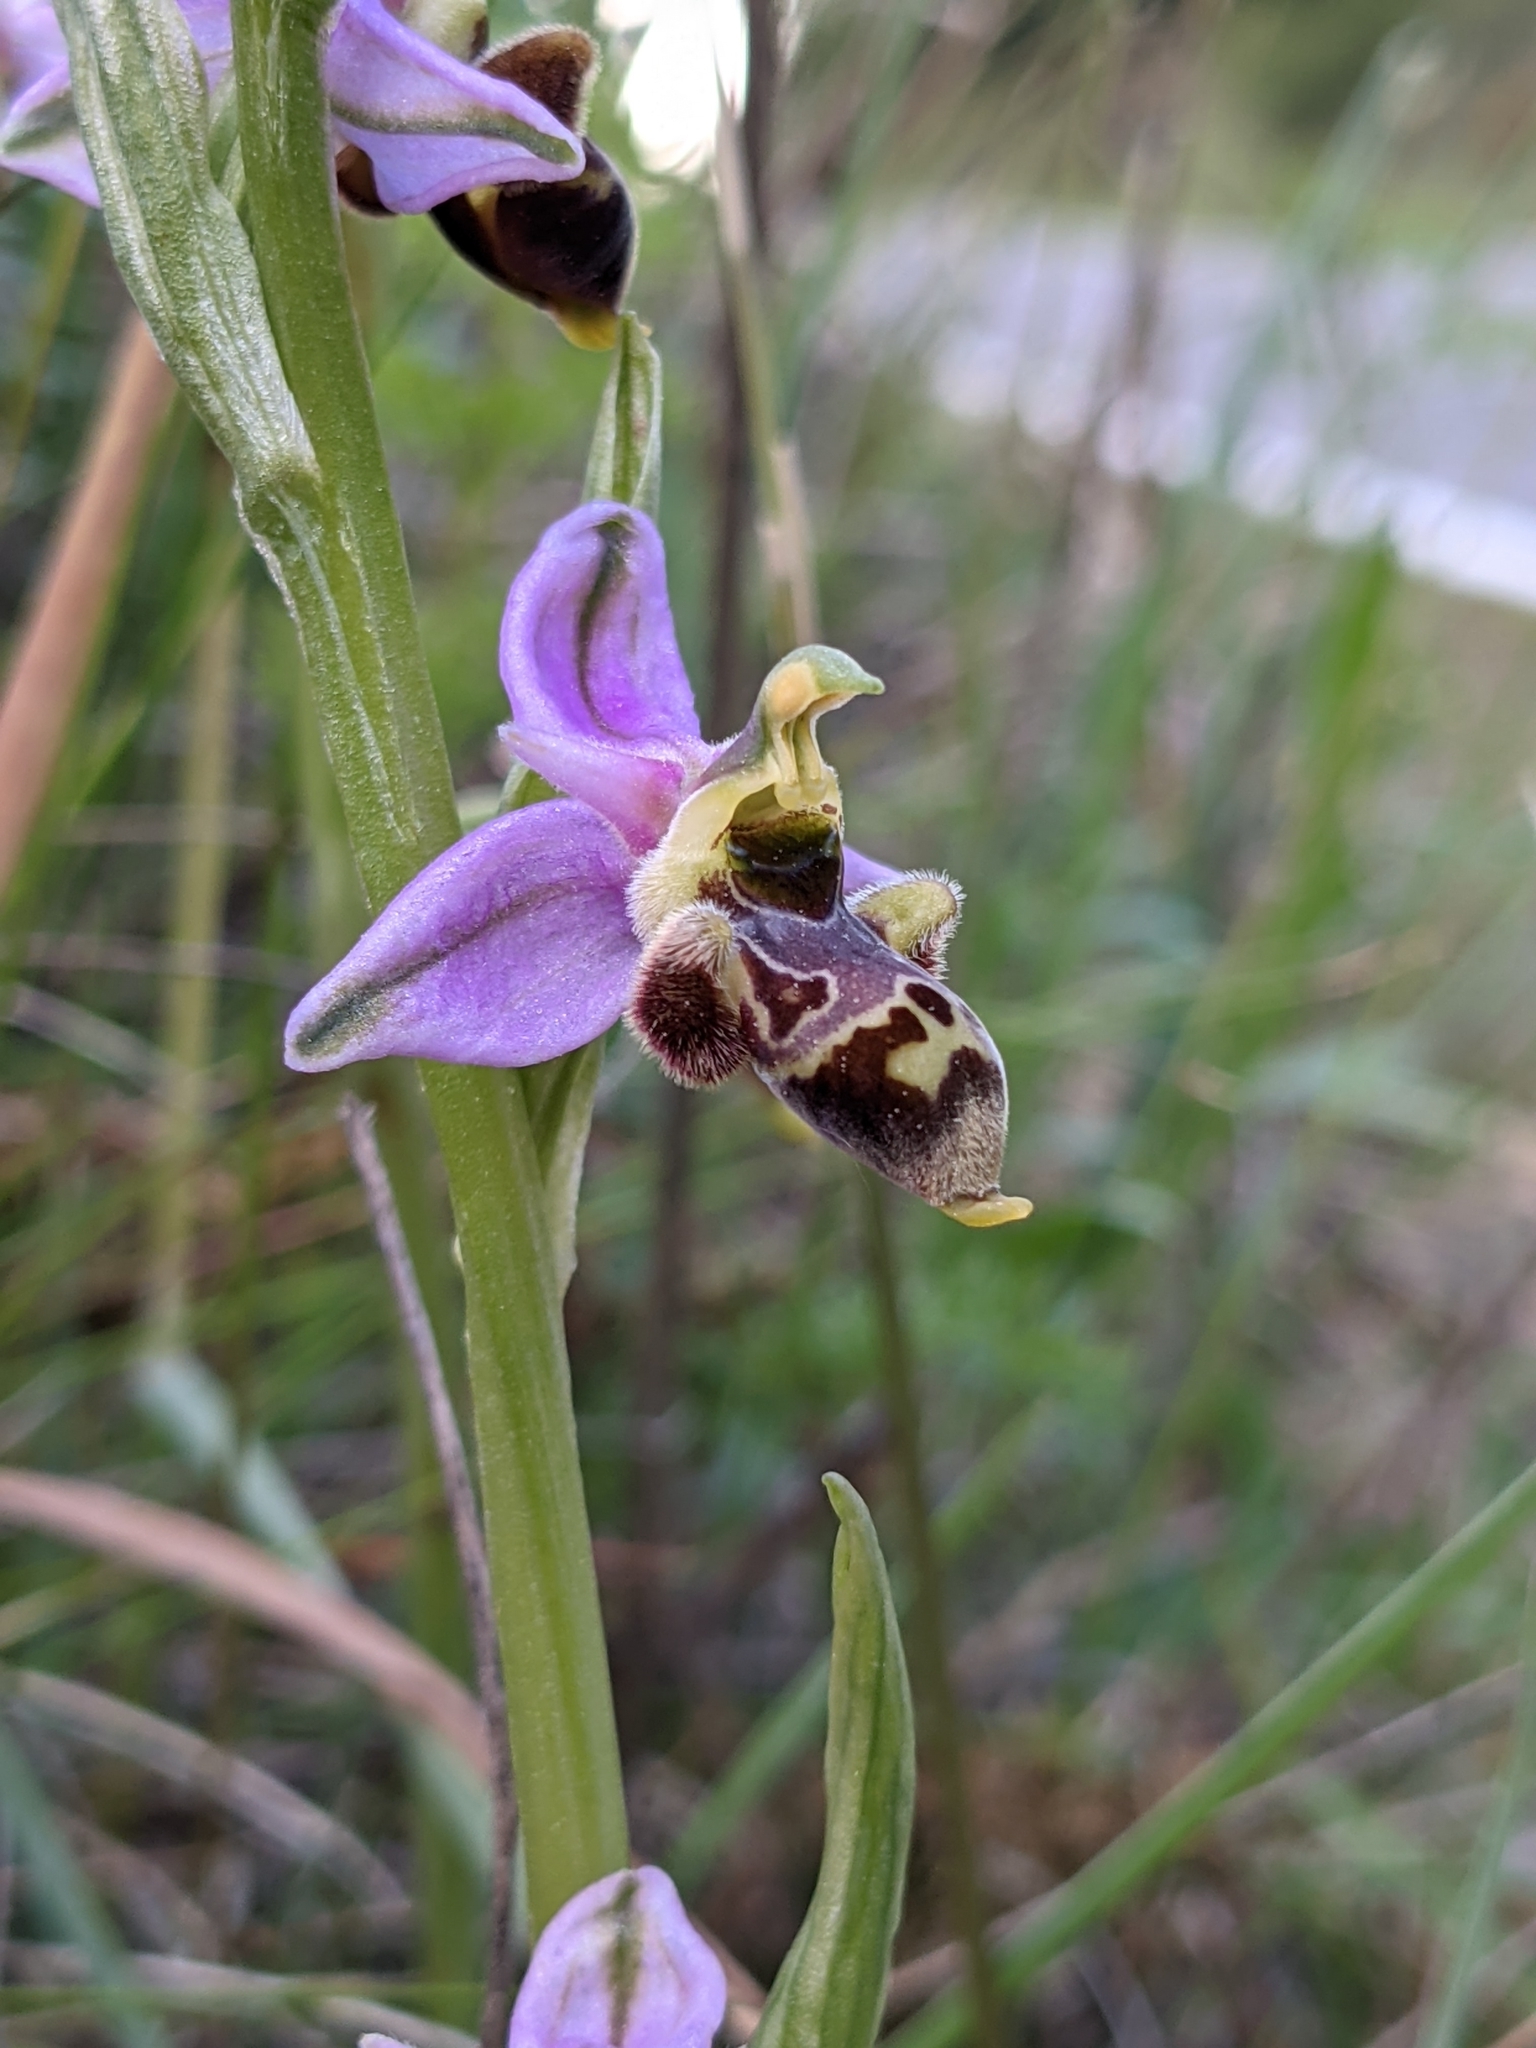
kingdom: Plantae
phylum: Tracheophyta
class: Liliopsida
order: Asparagales
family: Orchidaceae
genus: Ophrys
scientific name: Ophrys scolopax
